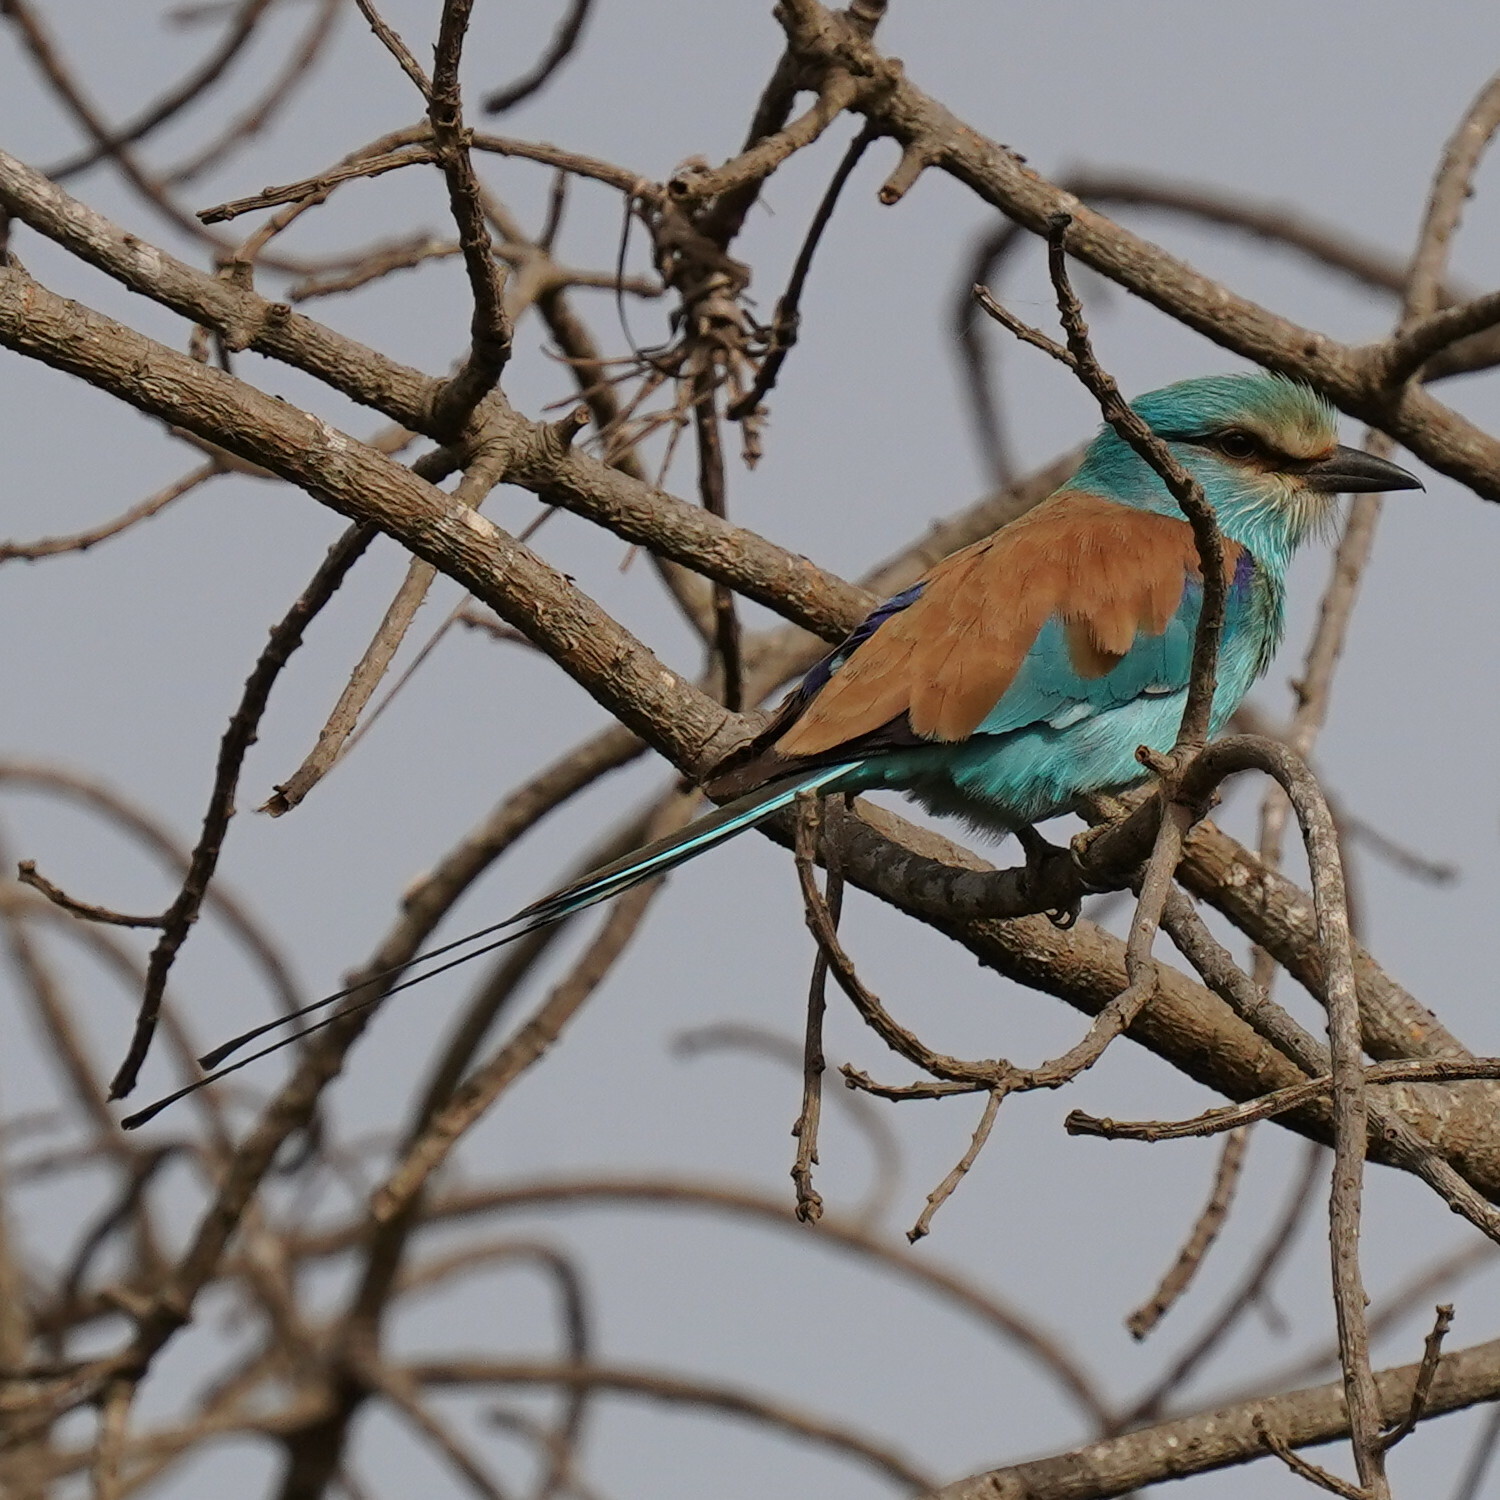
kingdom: Animalia
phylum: Chordata
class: Aves
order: Coraciiformes
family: Coraciidae
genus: Coracias
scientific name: Coracias abyssinicus
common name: Abyssinian roller
